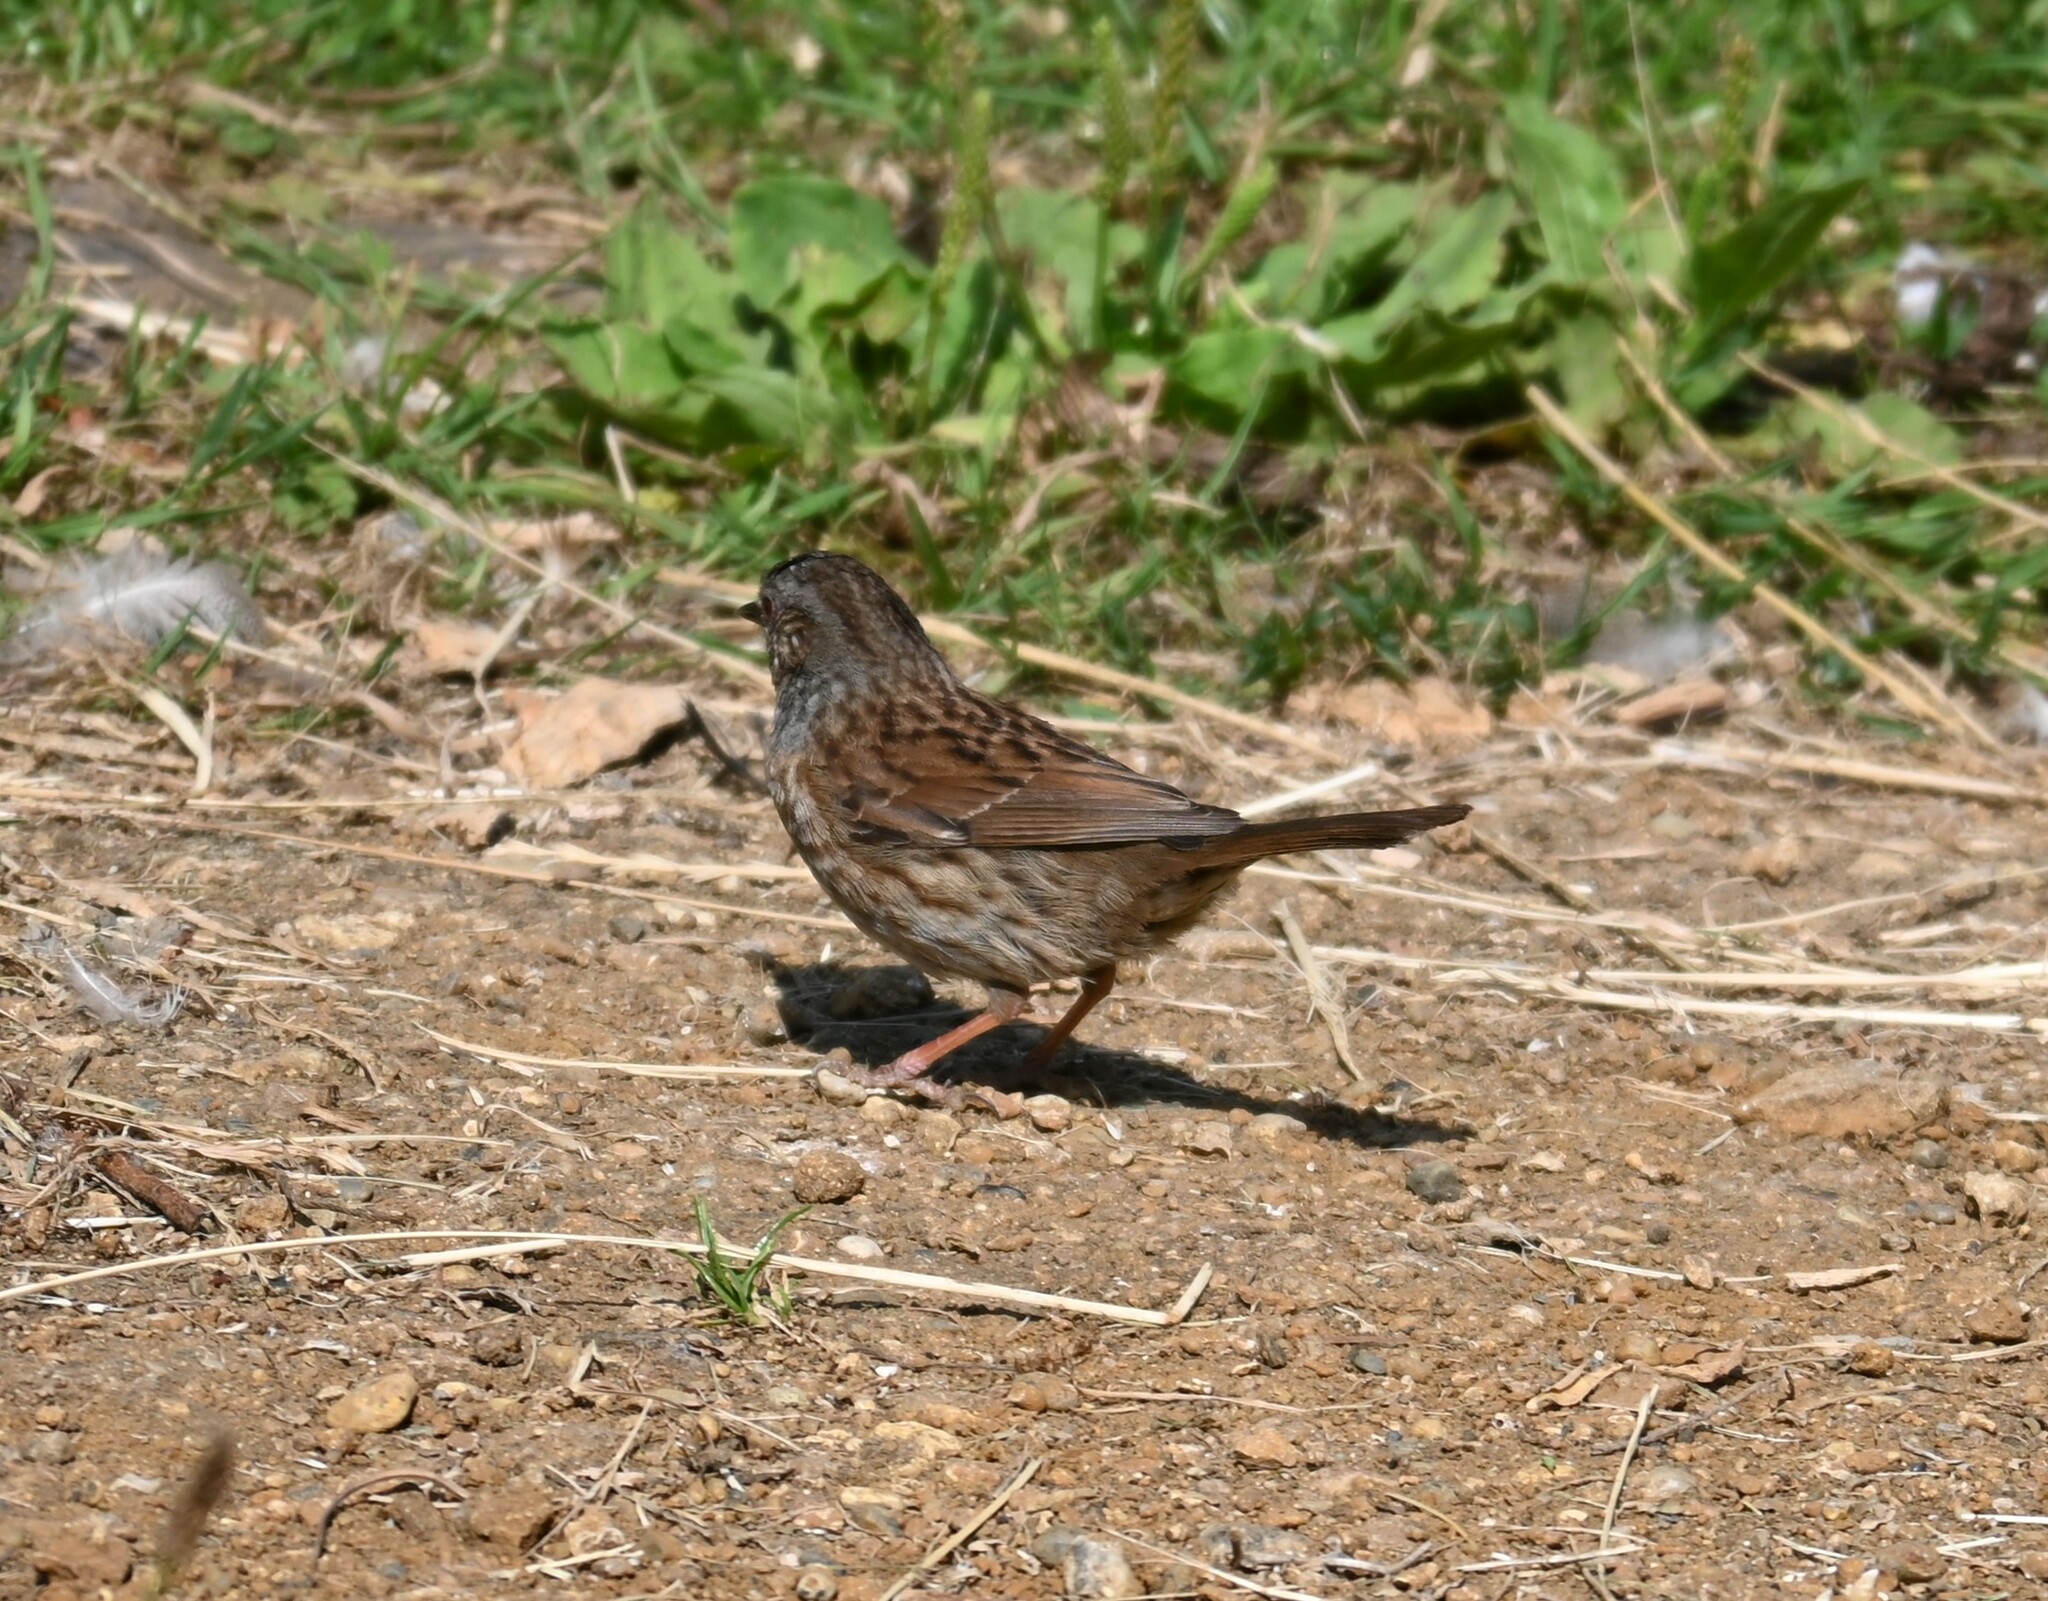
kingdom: Animalia
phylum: Chordata
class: Aves
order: Passeriformes
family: Prunellidae
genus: Prunella
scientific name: Prunella modularis
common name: Dunnock
